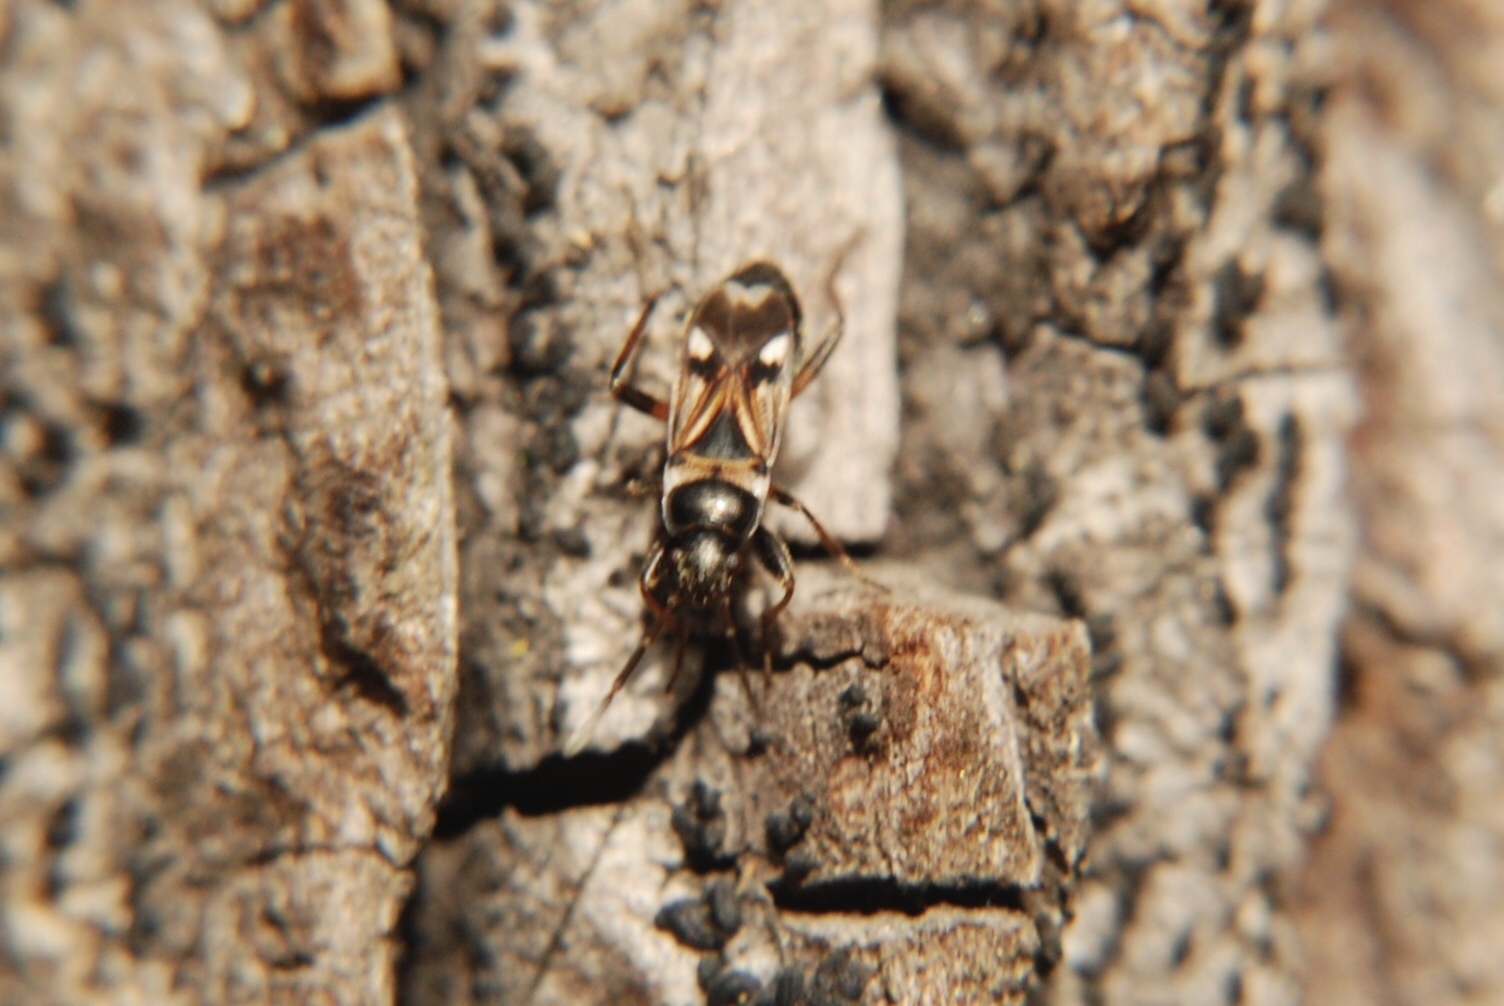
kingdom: Animalia
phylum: Arthropoda
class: Insecta
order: Hemiptera
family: Rhyparochromidae
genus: Raglius
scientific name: Raglius alboacuminatus
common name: Dirt-colored seed bug
